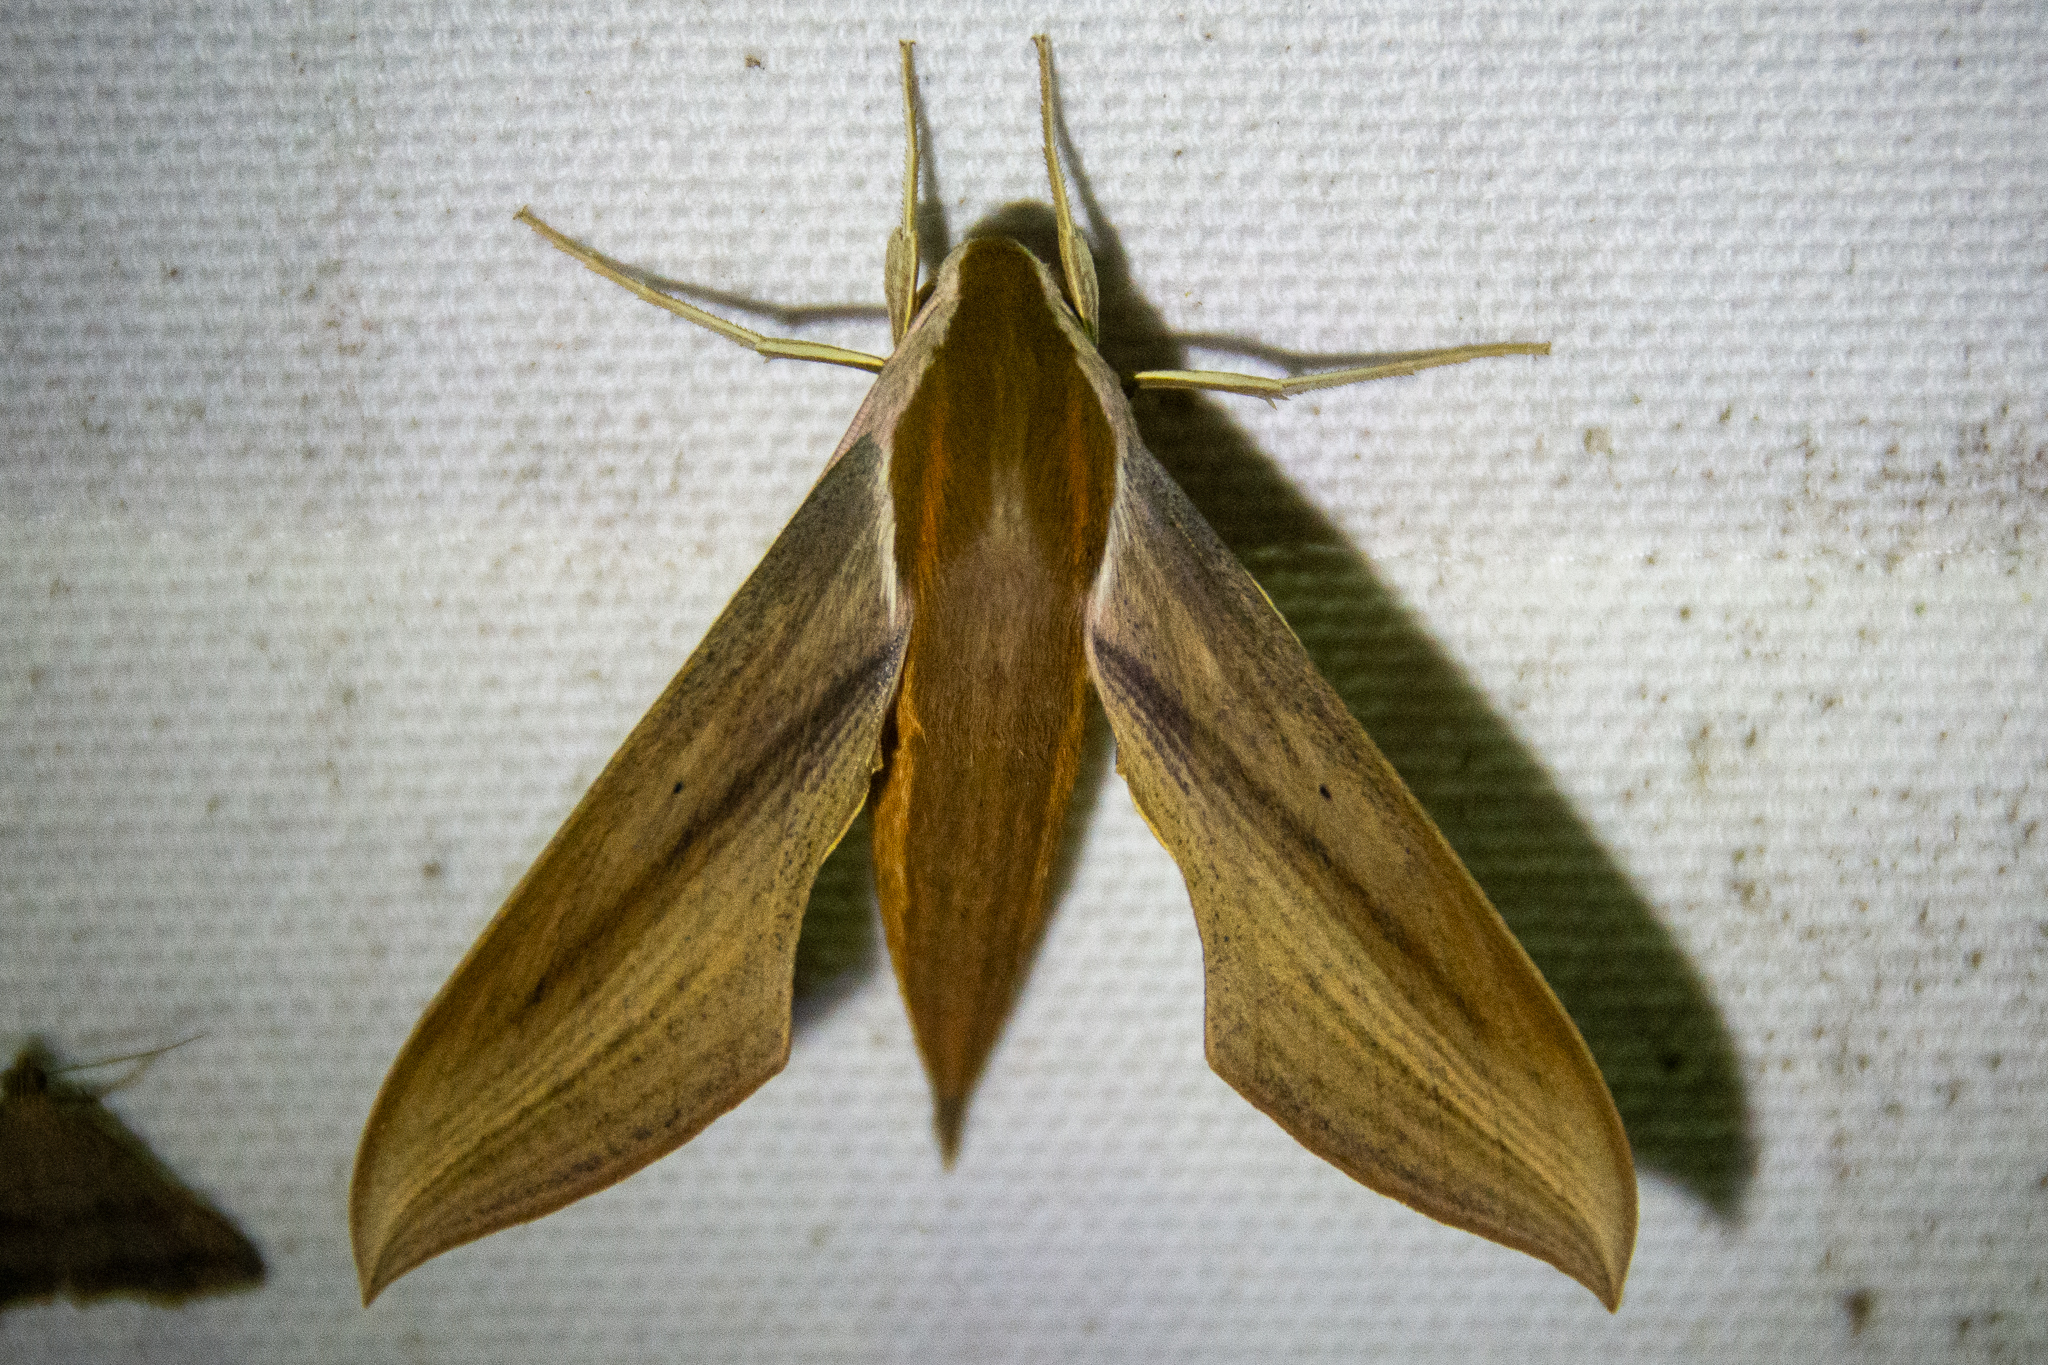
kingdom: Animalia
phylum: Arthropoda
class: Insecta
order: Lepidoptera
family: Sphingidae
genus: Xylophanes
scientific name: Xylophanes tersa
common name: Tersa sphinx
